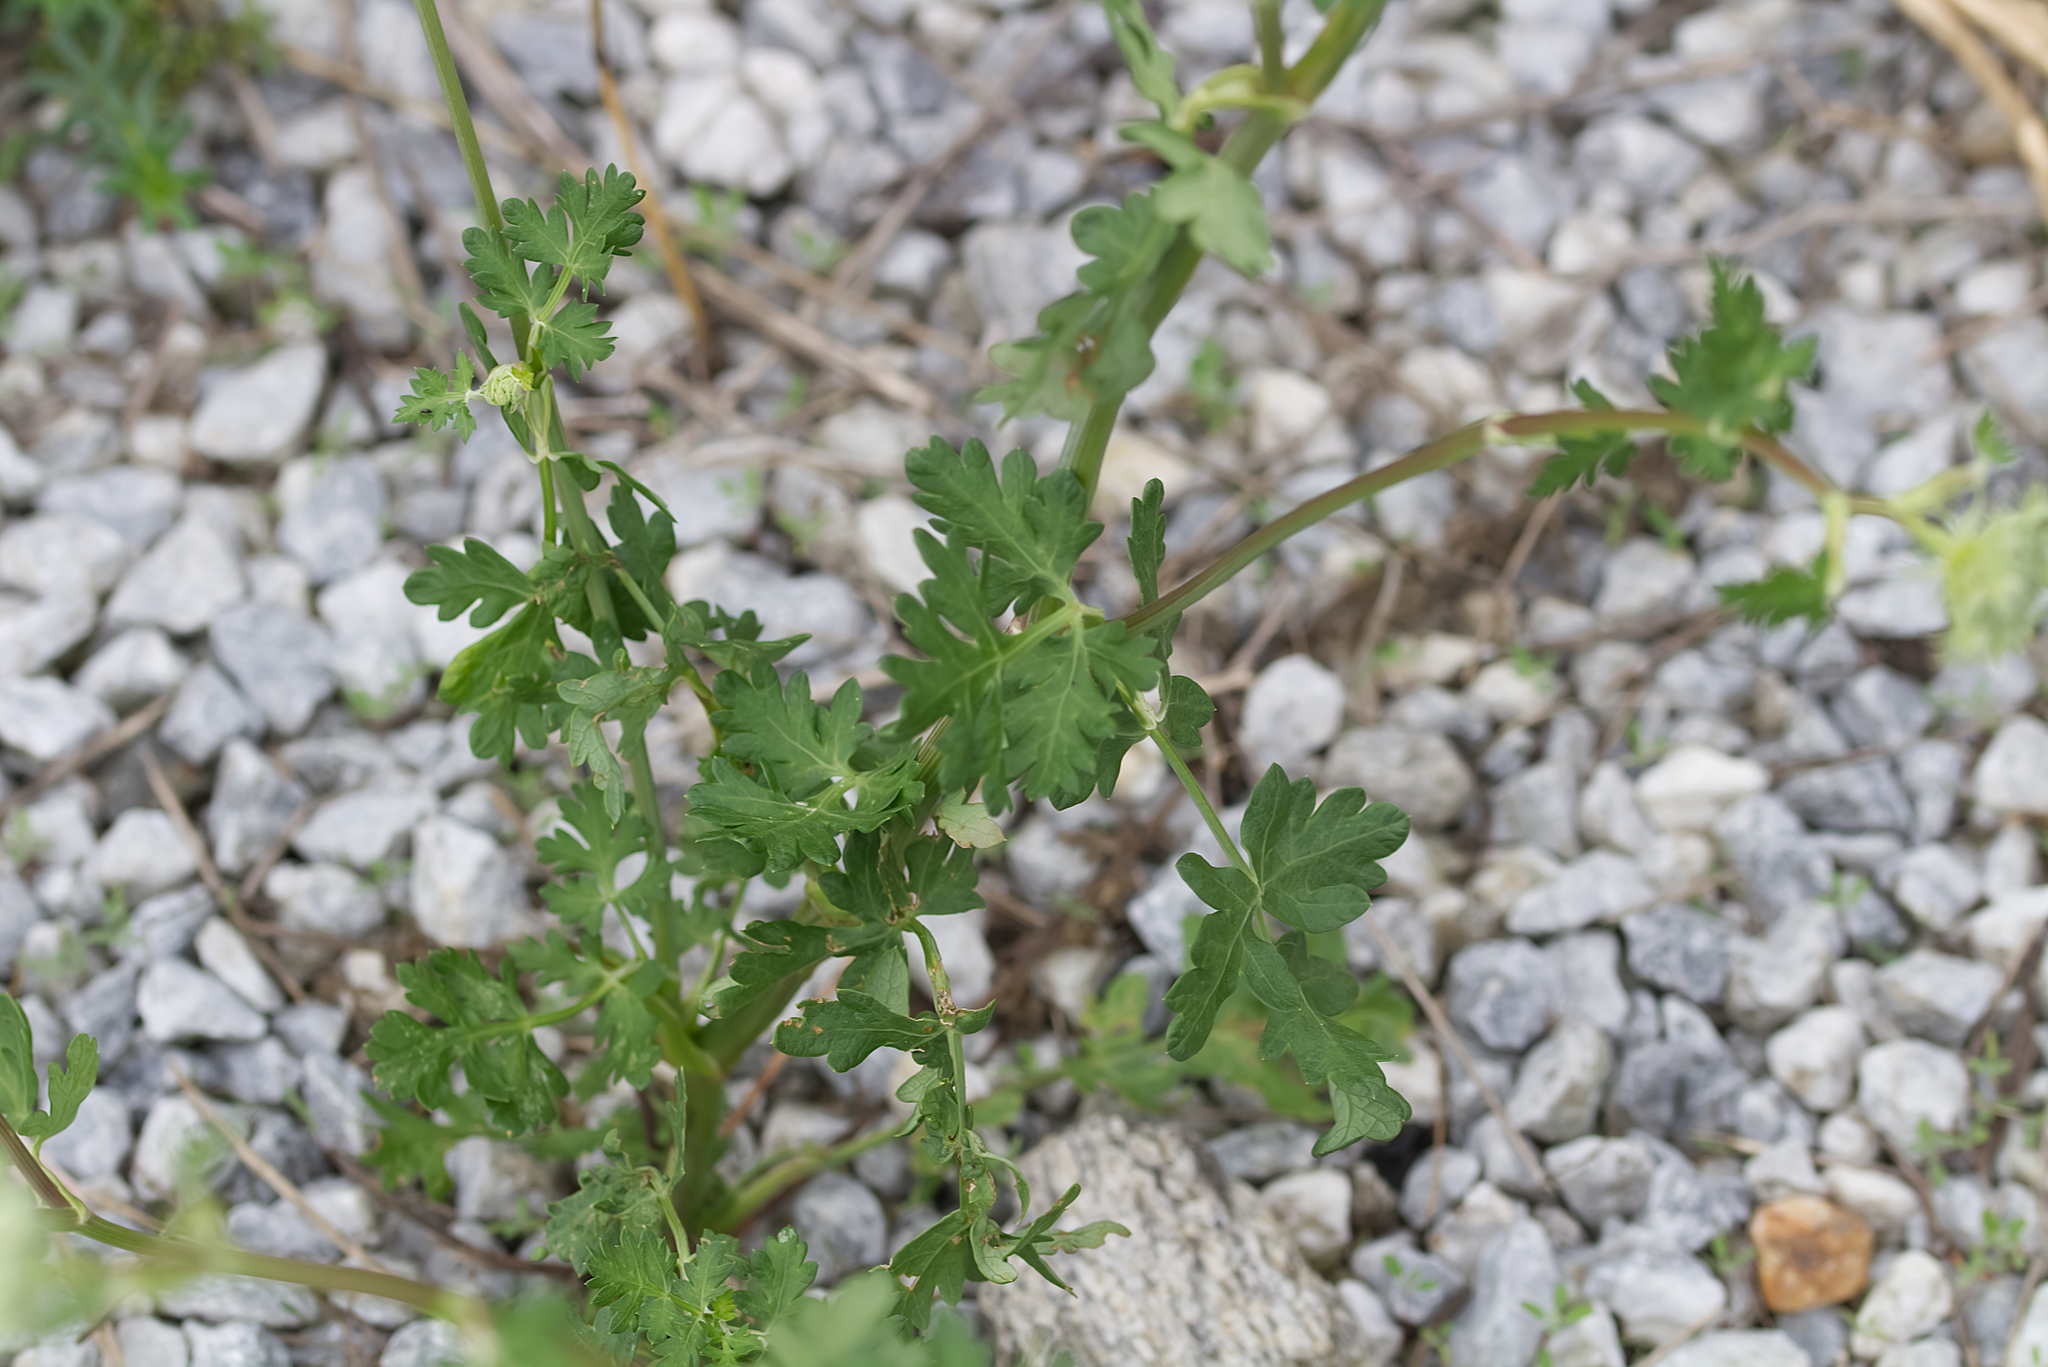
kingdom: Plantae
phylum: Tracheophyta
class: Magnoliopsida
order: Apiales
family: Apiaceae
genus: Oreoselinum
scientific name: Oreoselinum nigrum
